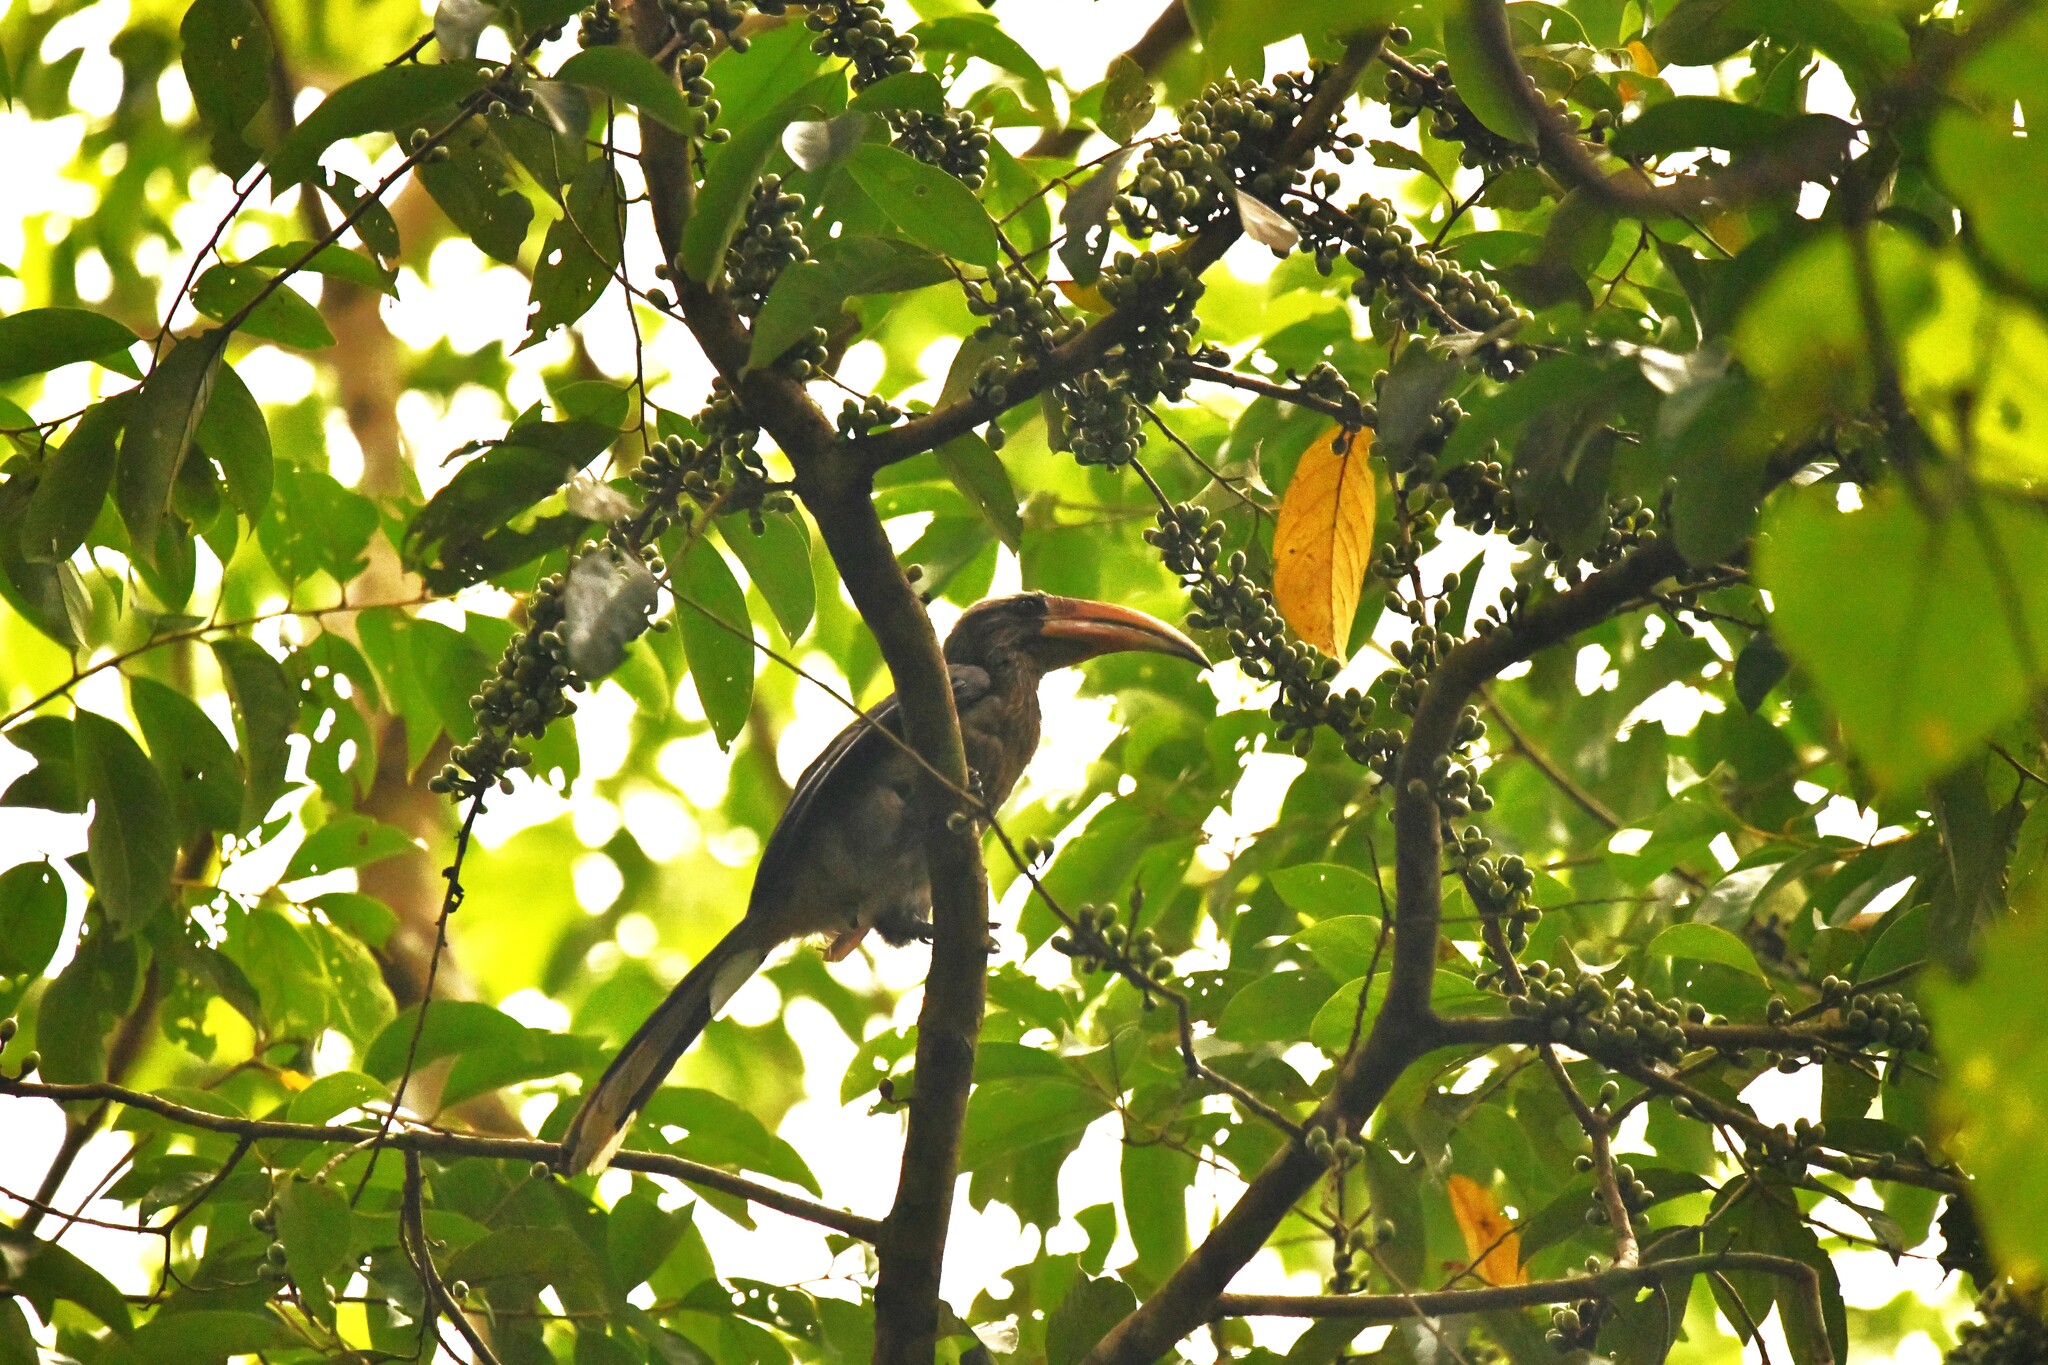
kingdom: Animalia
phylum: Chordata
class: Aves
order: Bucerotiformes
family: Bucerotidae
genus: Ocyceros
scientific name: Ocyceros griseus
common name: Malabar grey hornbill
